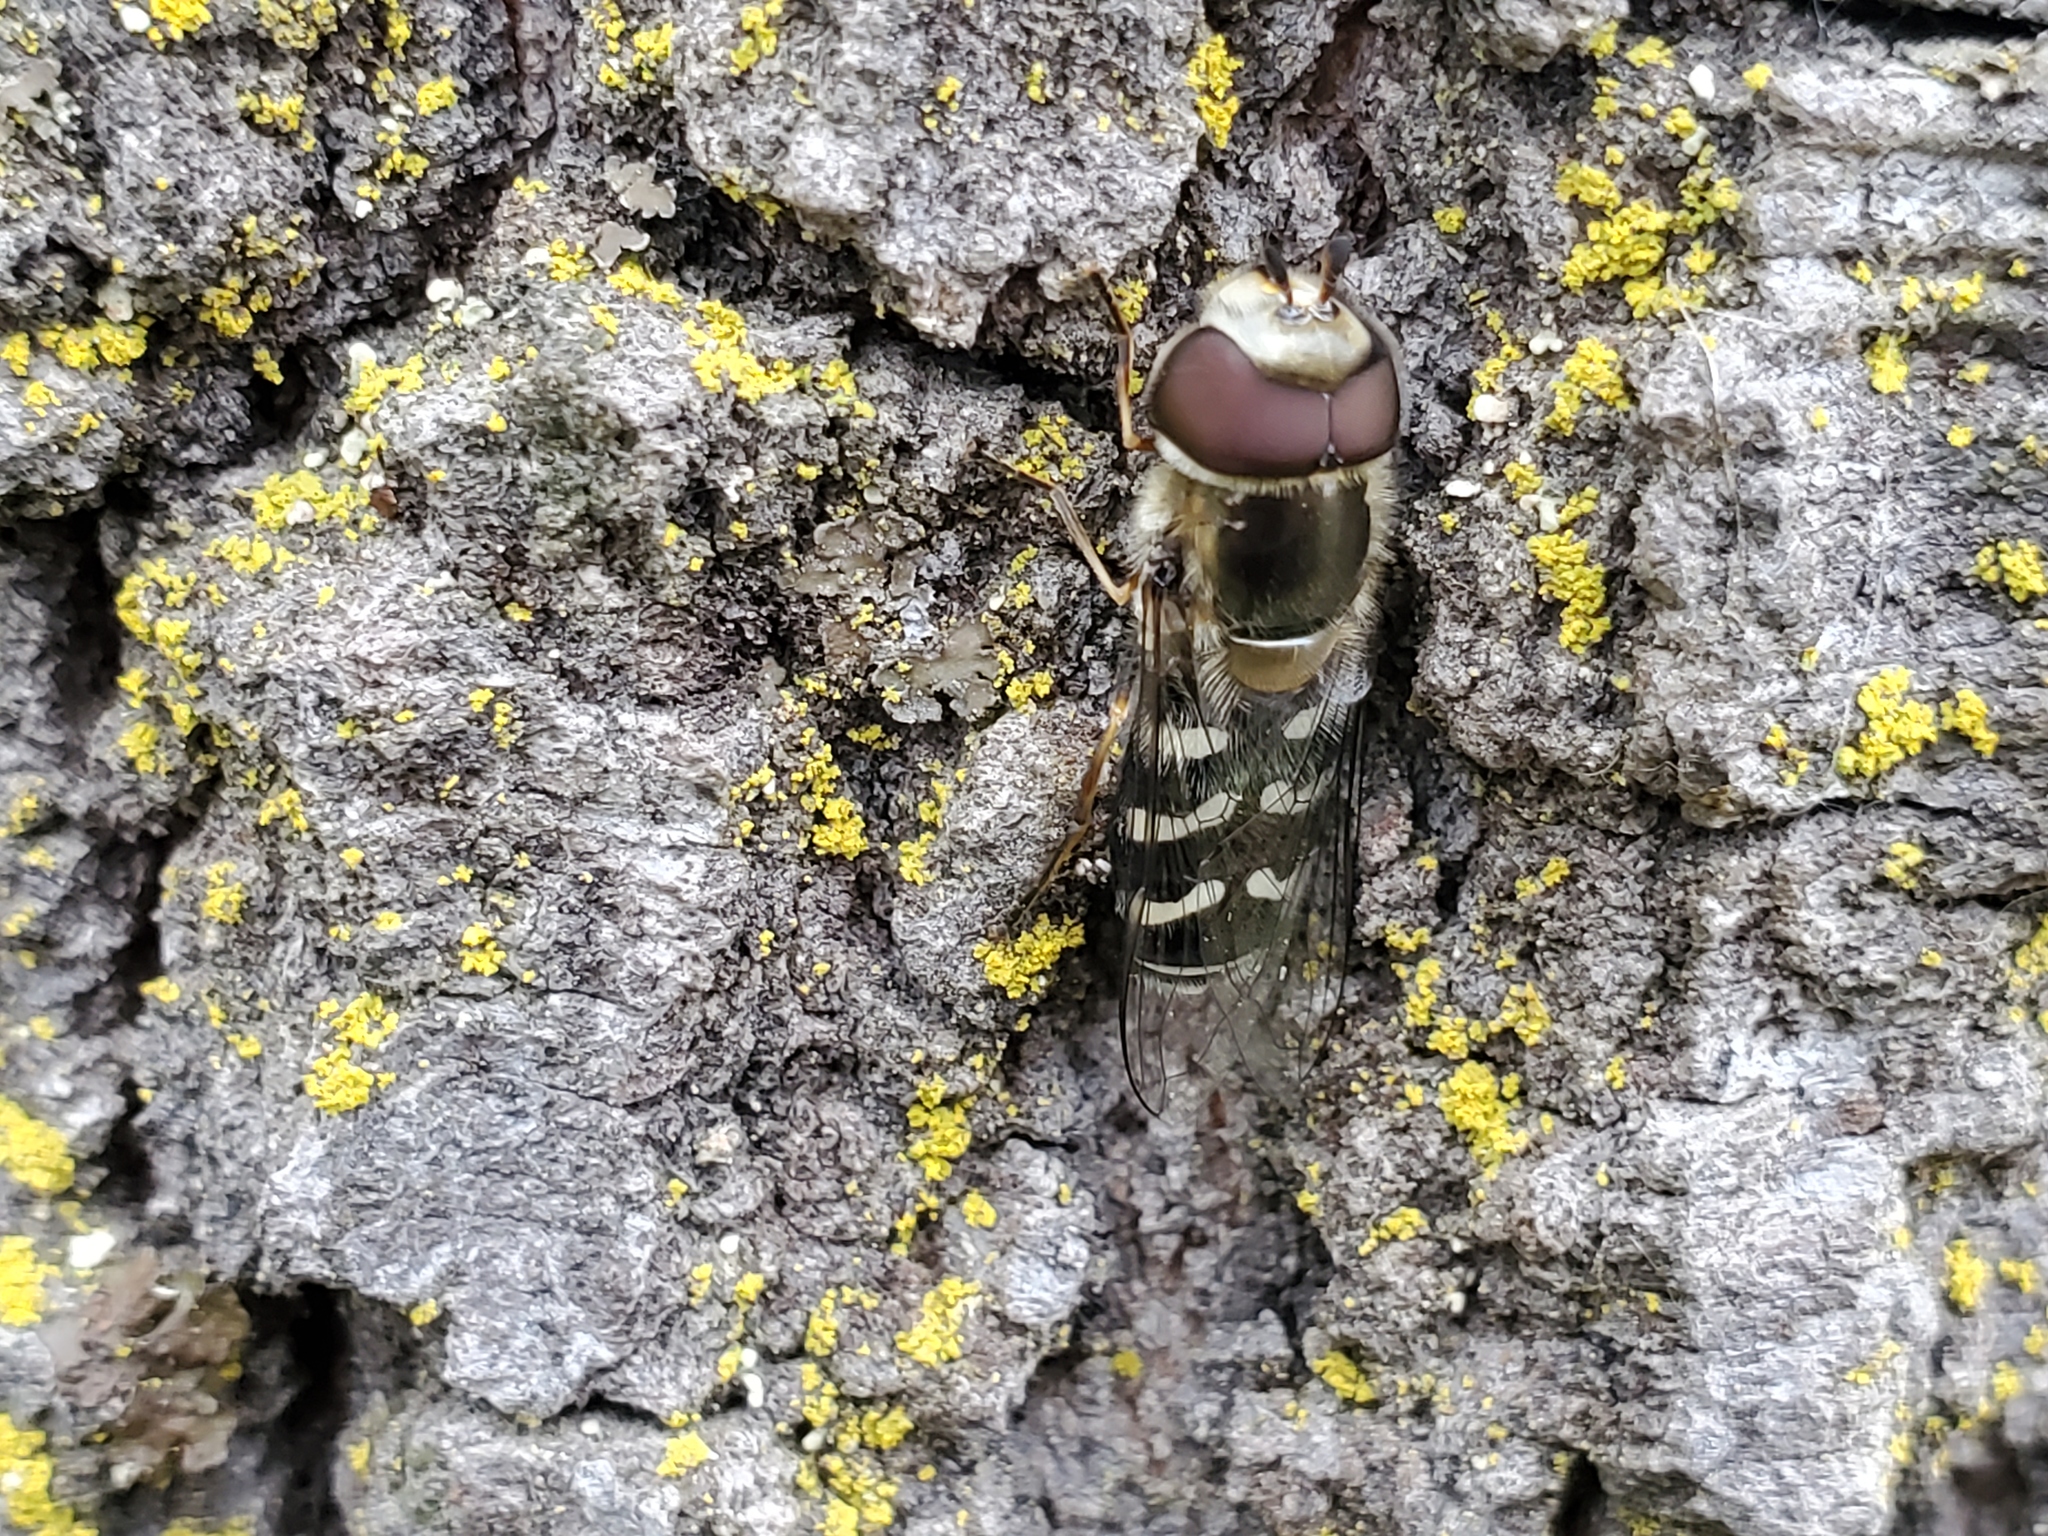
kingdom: Animalia
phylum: Arthropoda
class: Insecta
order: Diptera
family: Syrphidae
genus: Scaeva
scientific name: Scaeva affinis
